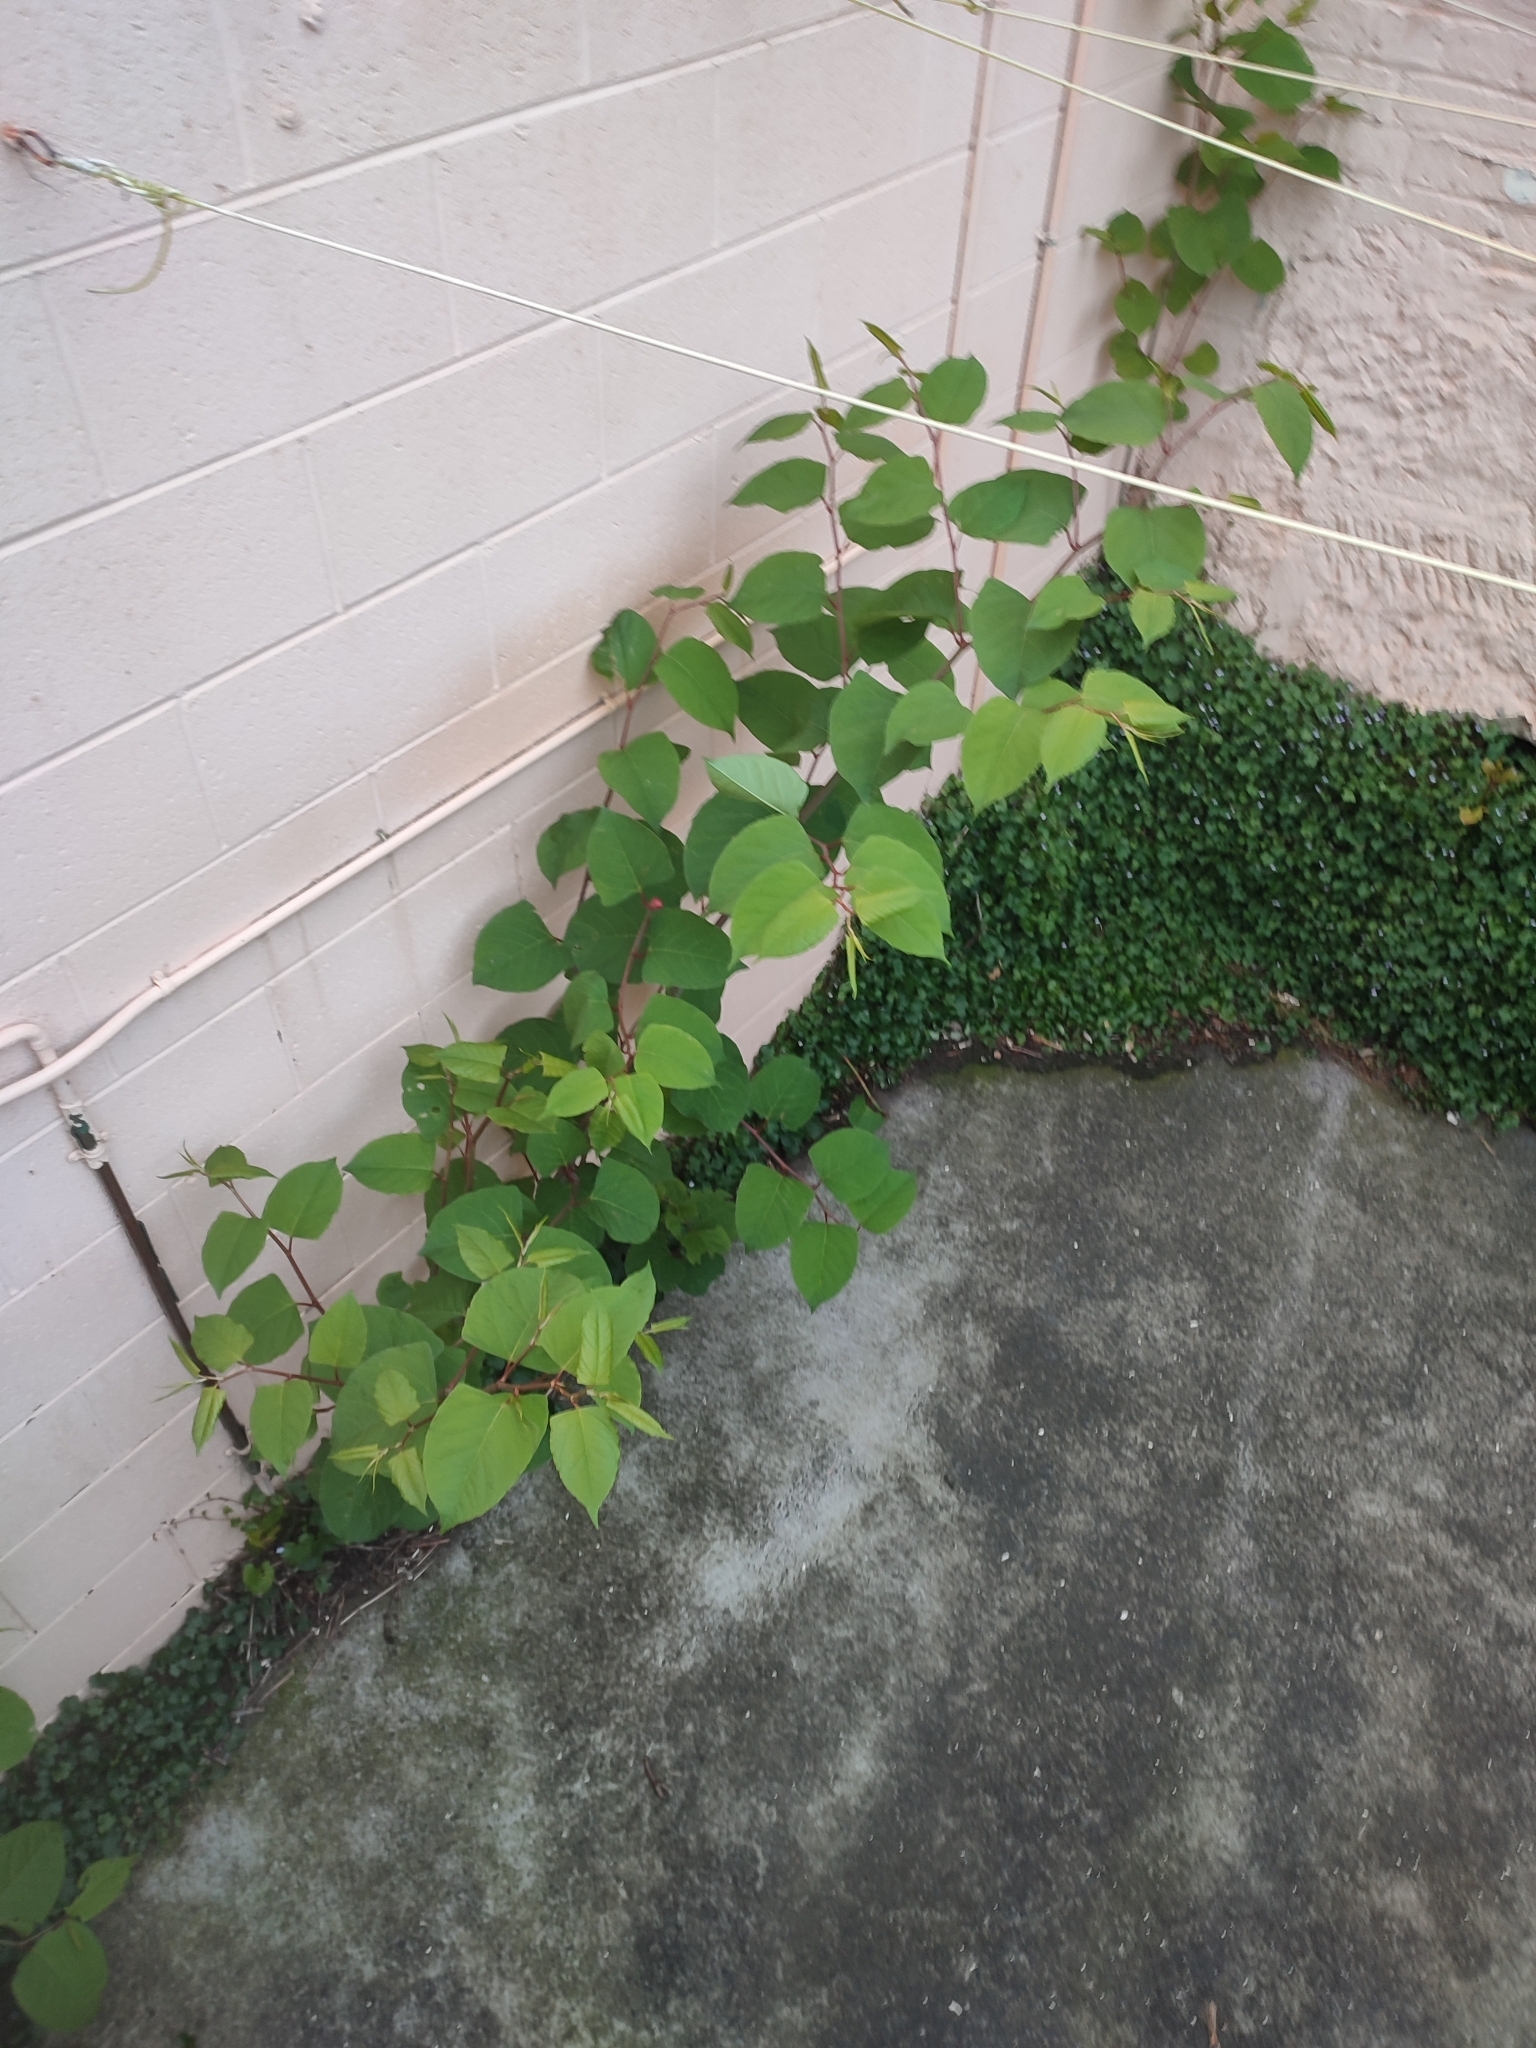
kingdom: Plantae
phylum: Tracheophyta
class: Magnoliopsida
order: Caryophyllales
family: Polygonaceae
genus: Reynoutria
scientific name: Reynoutria japonica
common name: Japanese knotweed
